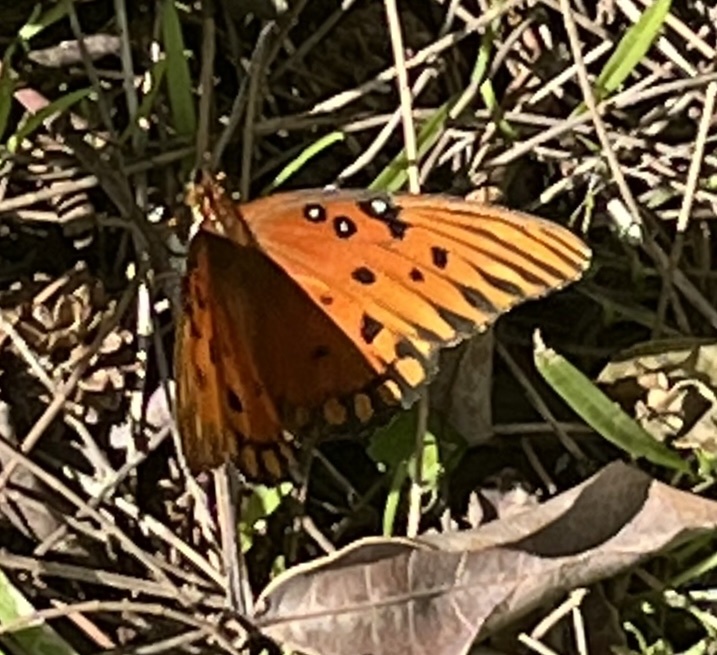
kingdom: Animalia
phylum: Arthropoda
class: Insecta
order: Lepidoptera
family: Nymphalidae
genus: Dione
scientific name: Dione vanillae
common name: Gulf fritillary
